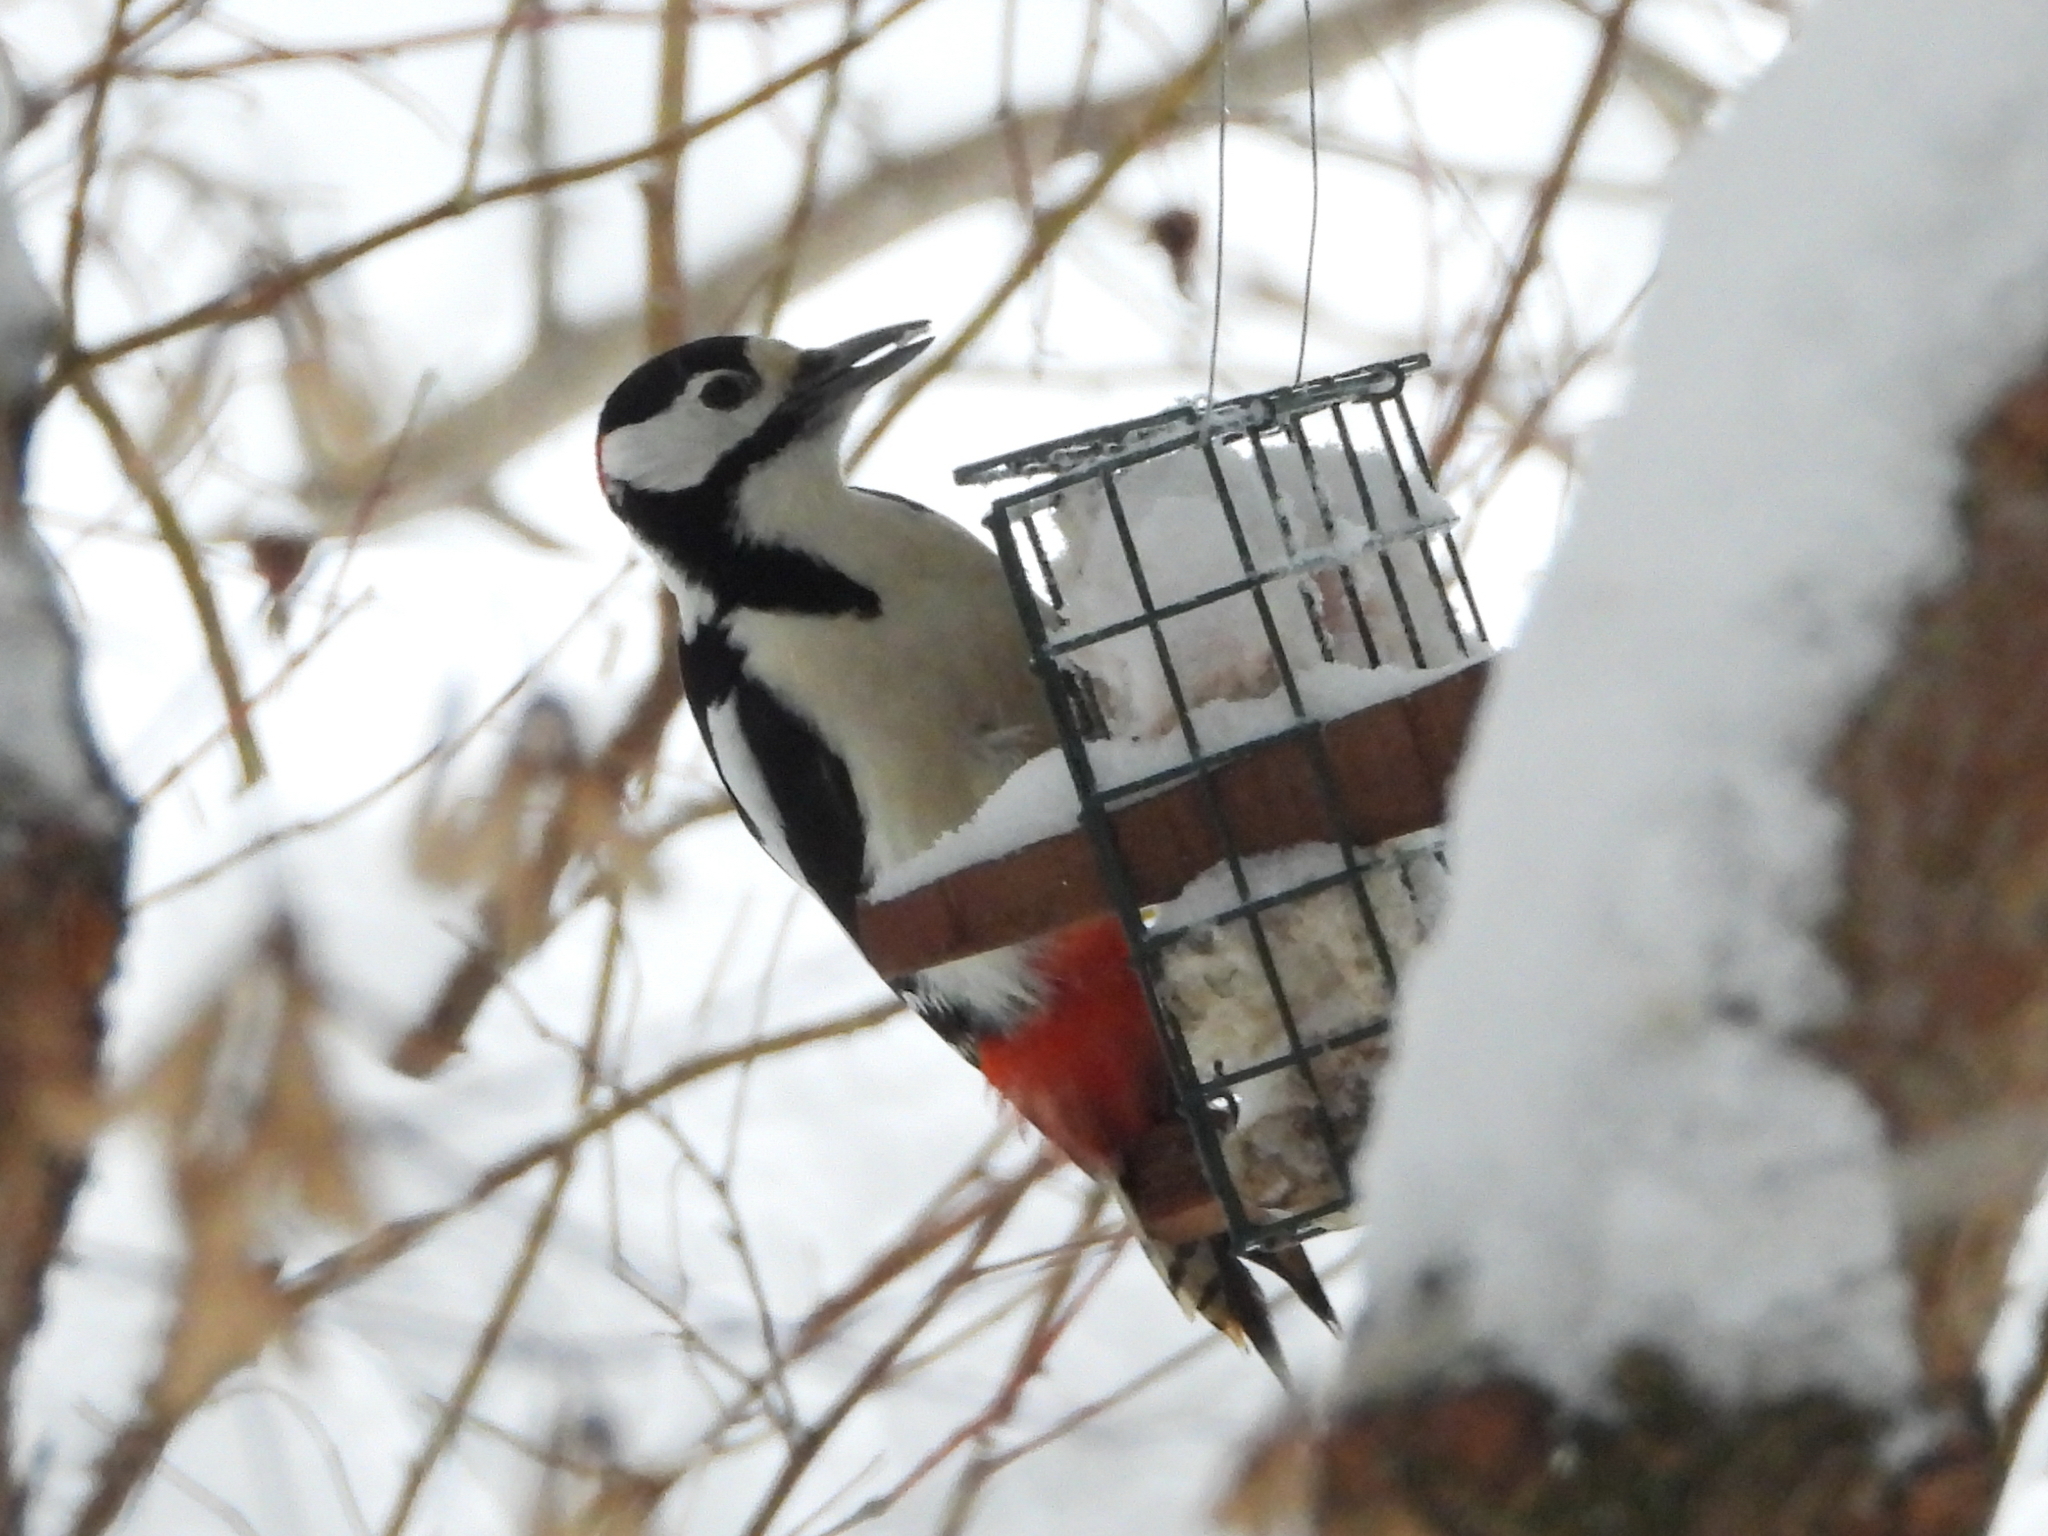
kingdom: Animalia
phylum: Chordata
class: Aves
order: Piciformes
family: Picidae
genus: Dendrocopos
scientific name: Dendrocopos major
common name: Great spotted woodpecker
